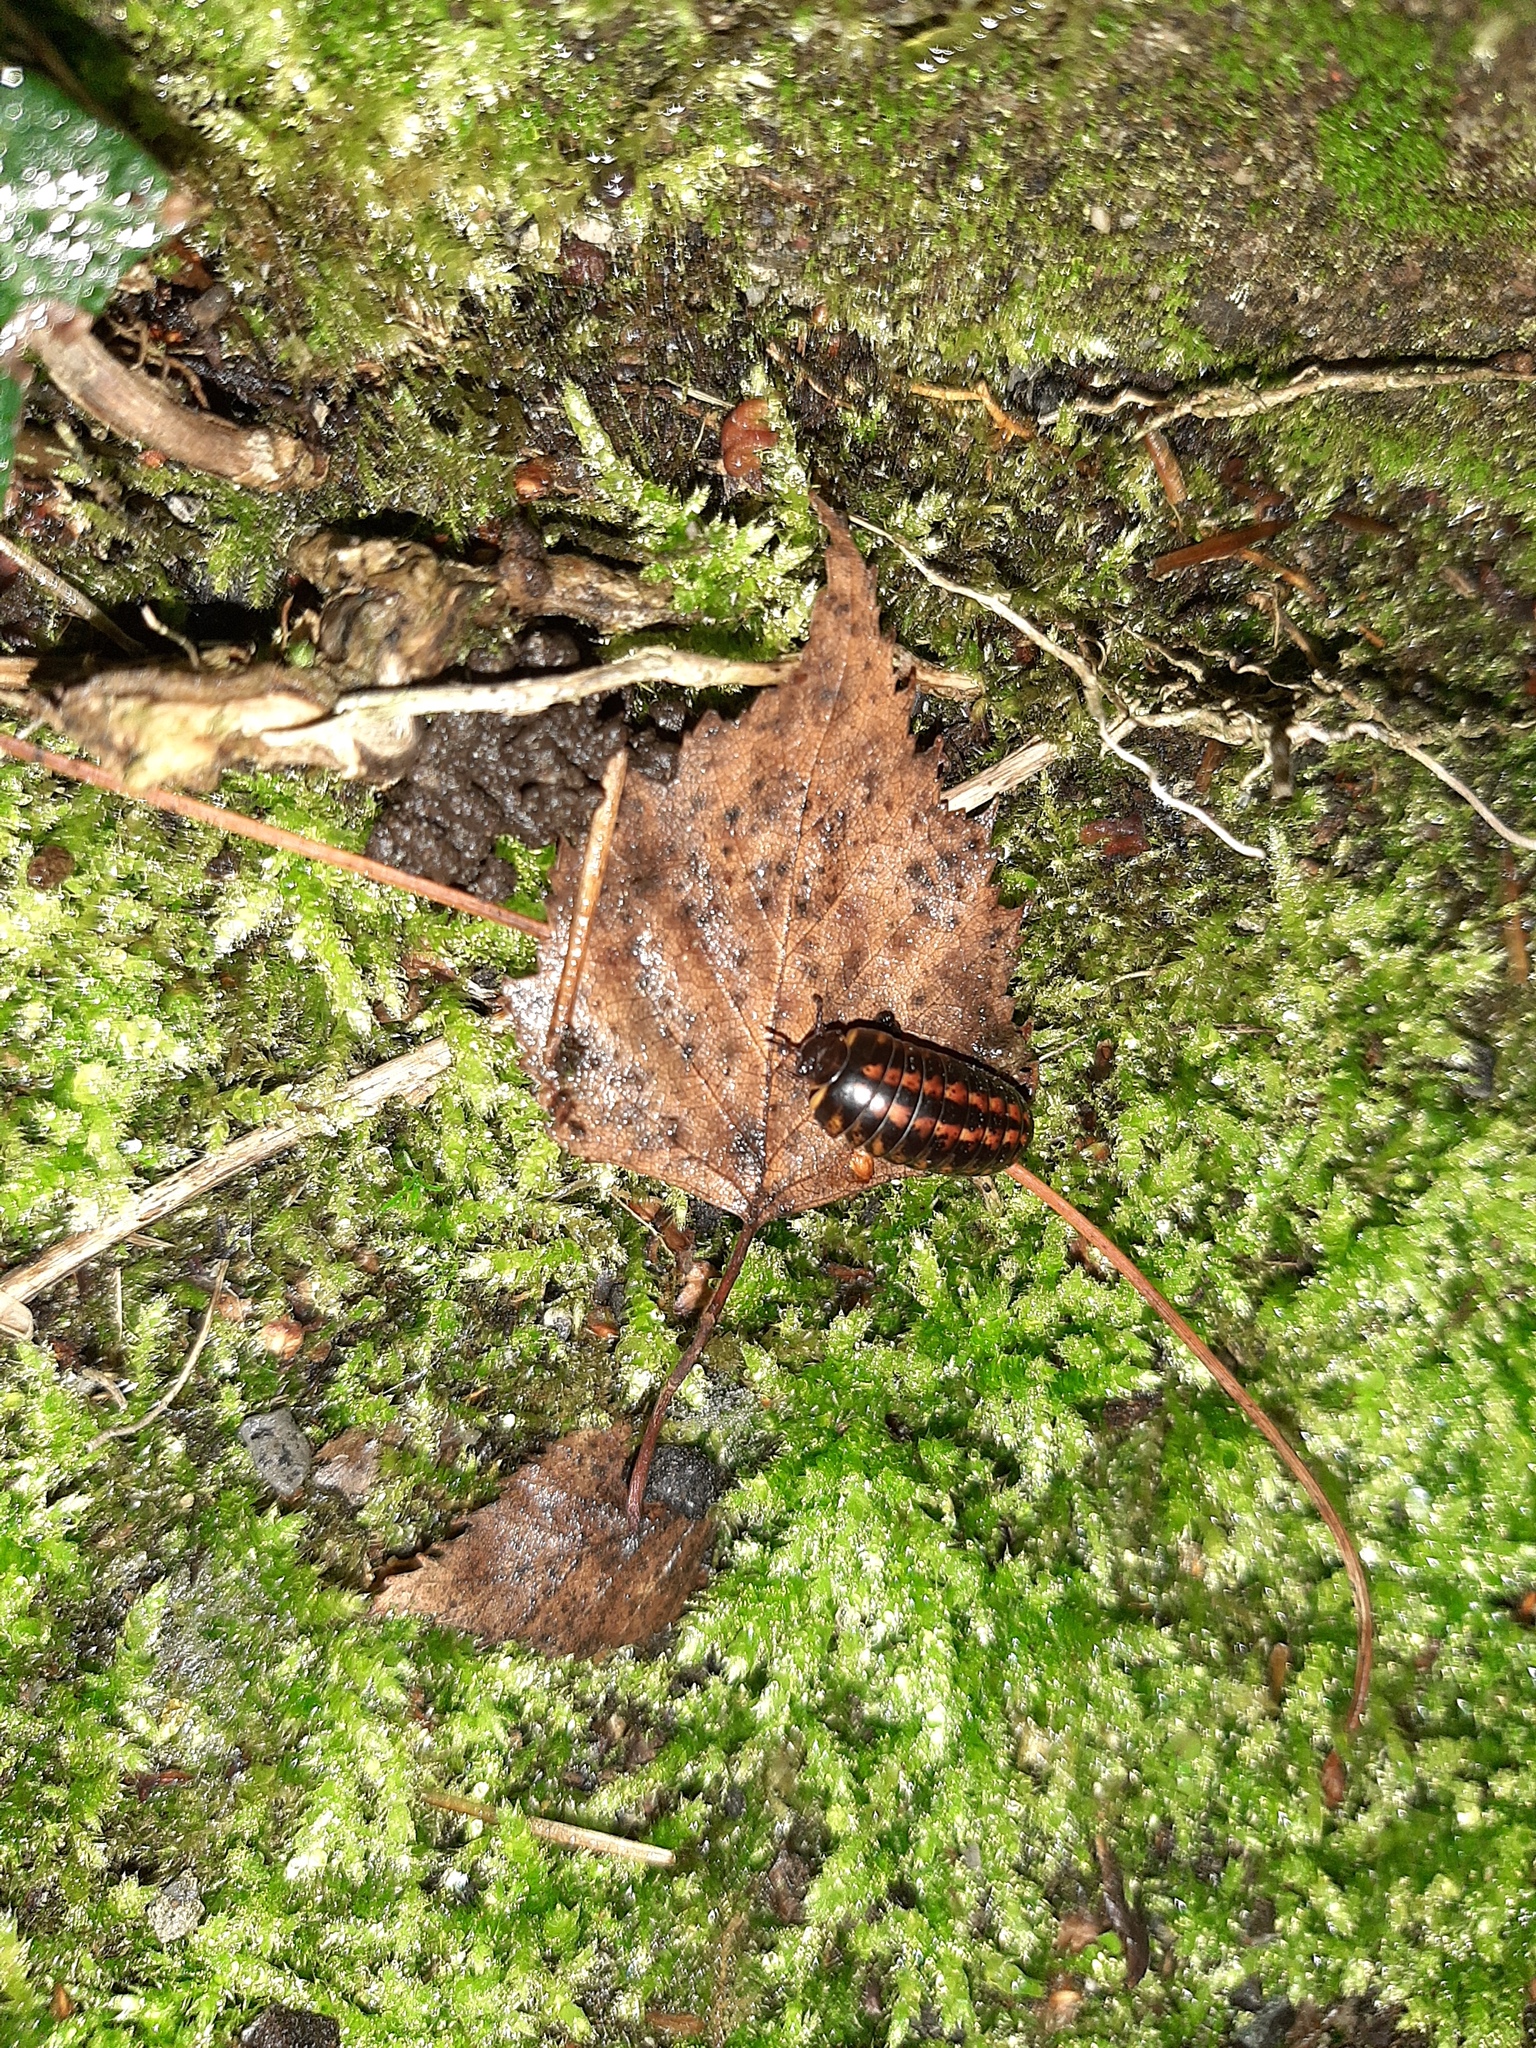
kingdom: Animalia
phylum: Arthropoda
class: Diplopoda
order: Glomerida
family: Glomeridae
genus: Glomeris
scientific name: Glomeris klugii
